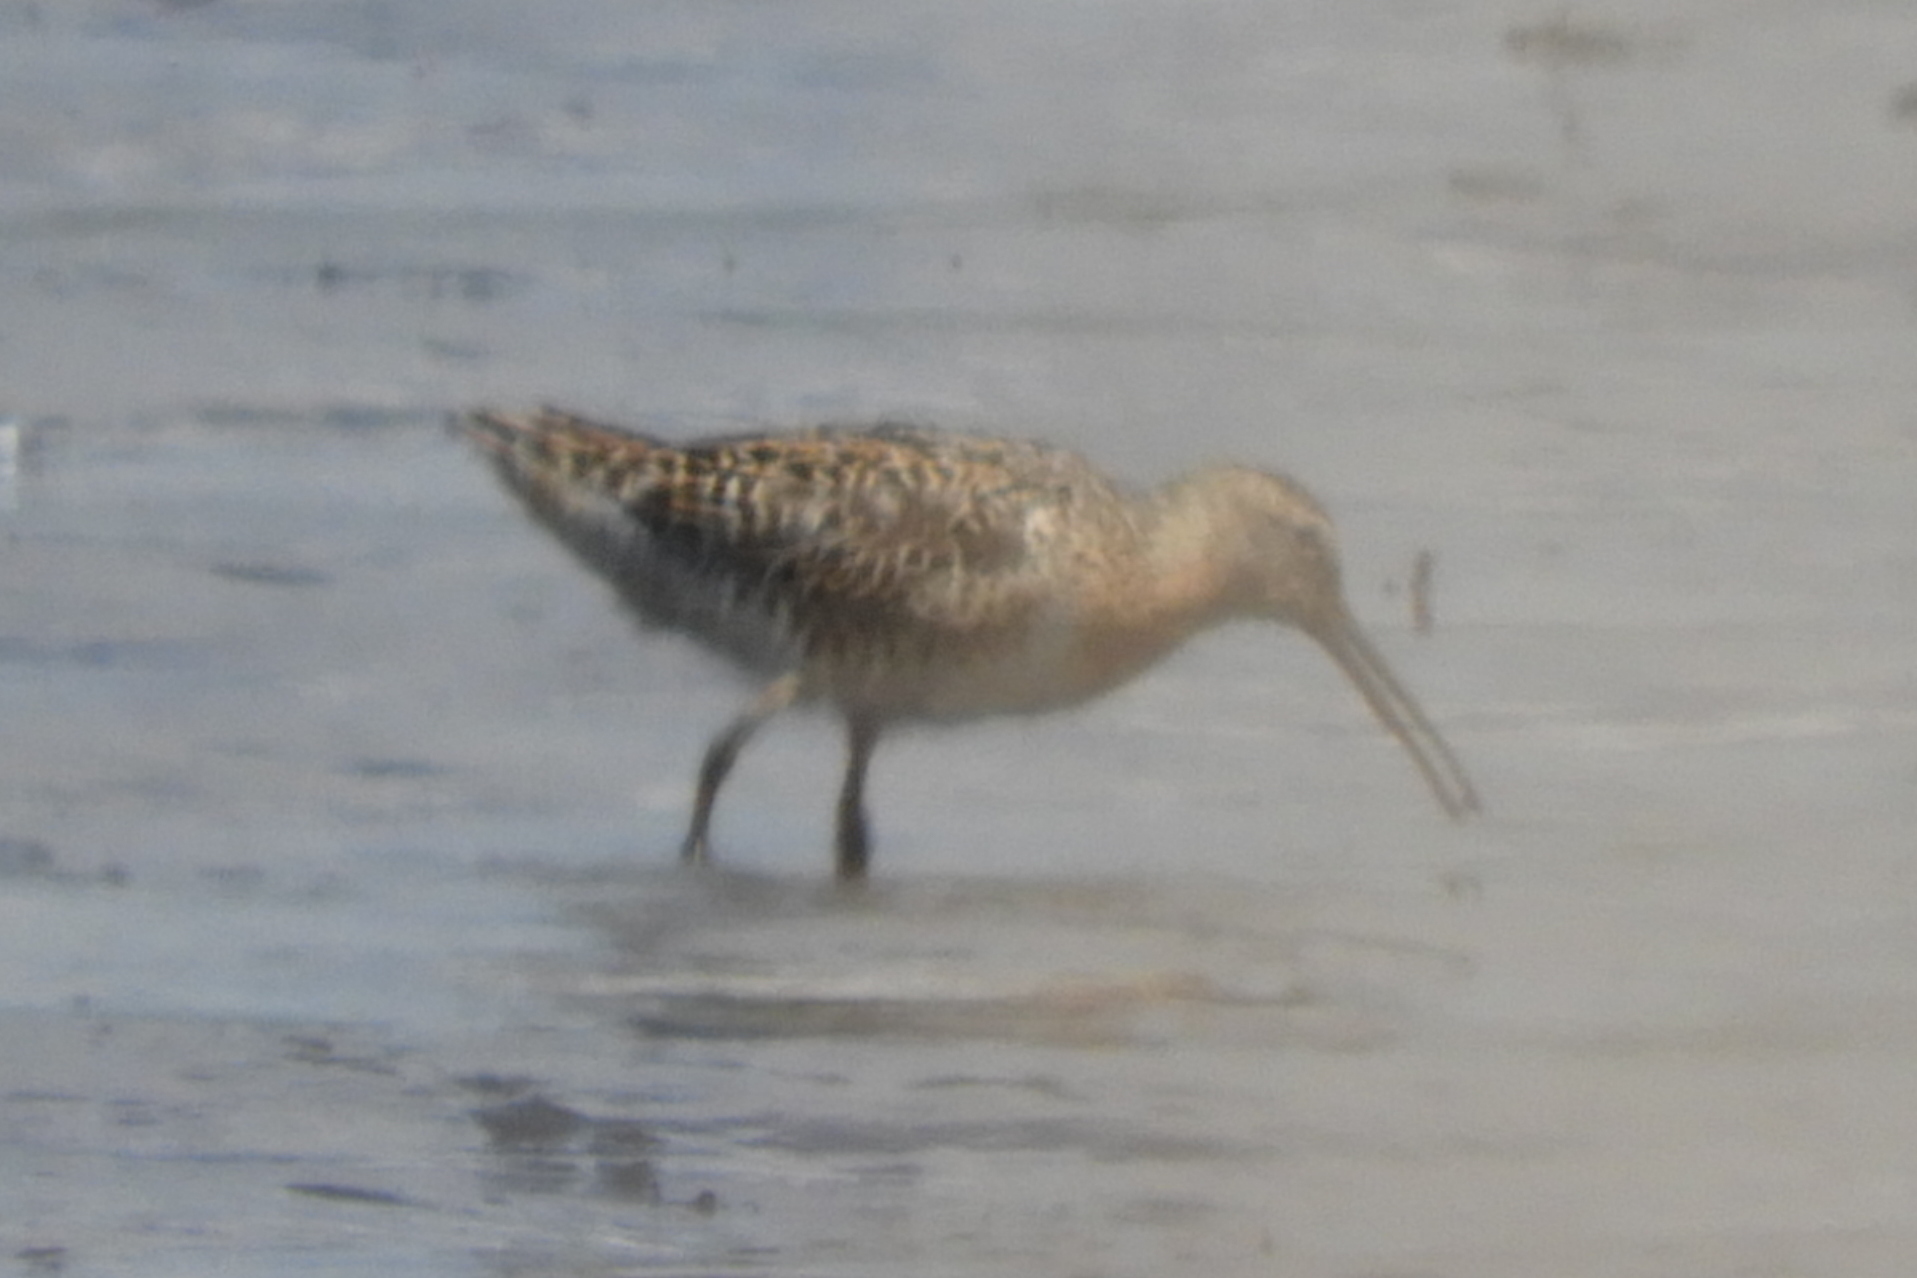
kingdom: Animalia
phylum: Chordata
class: Aves
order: Charadriiformes
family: Scolopacidae
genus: Limnodromus
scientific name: Limnodromus griseus
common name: Short-billed dowitcher
